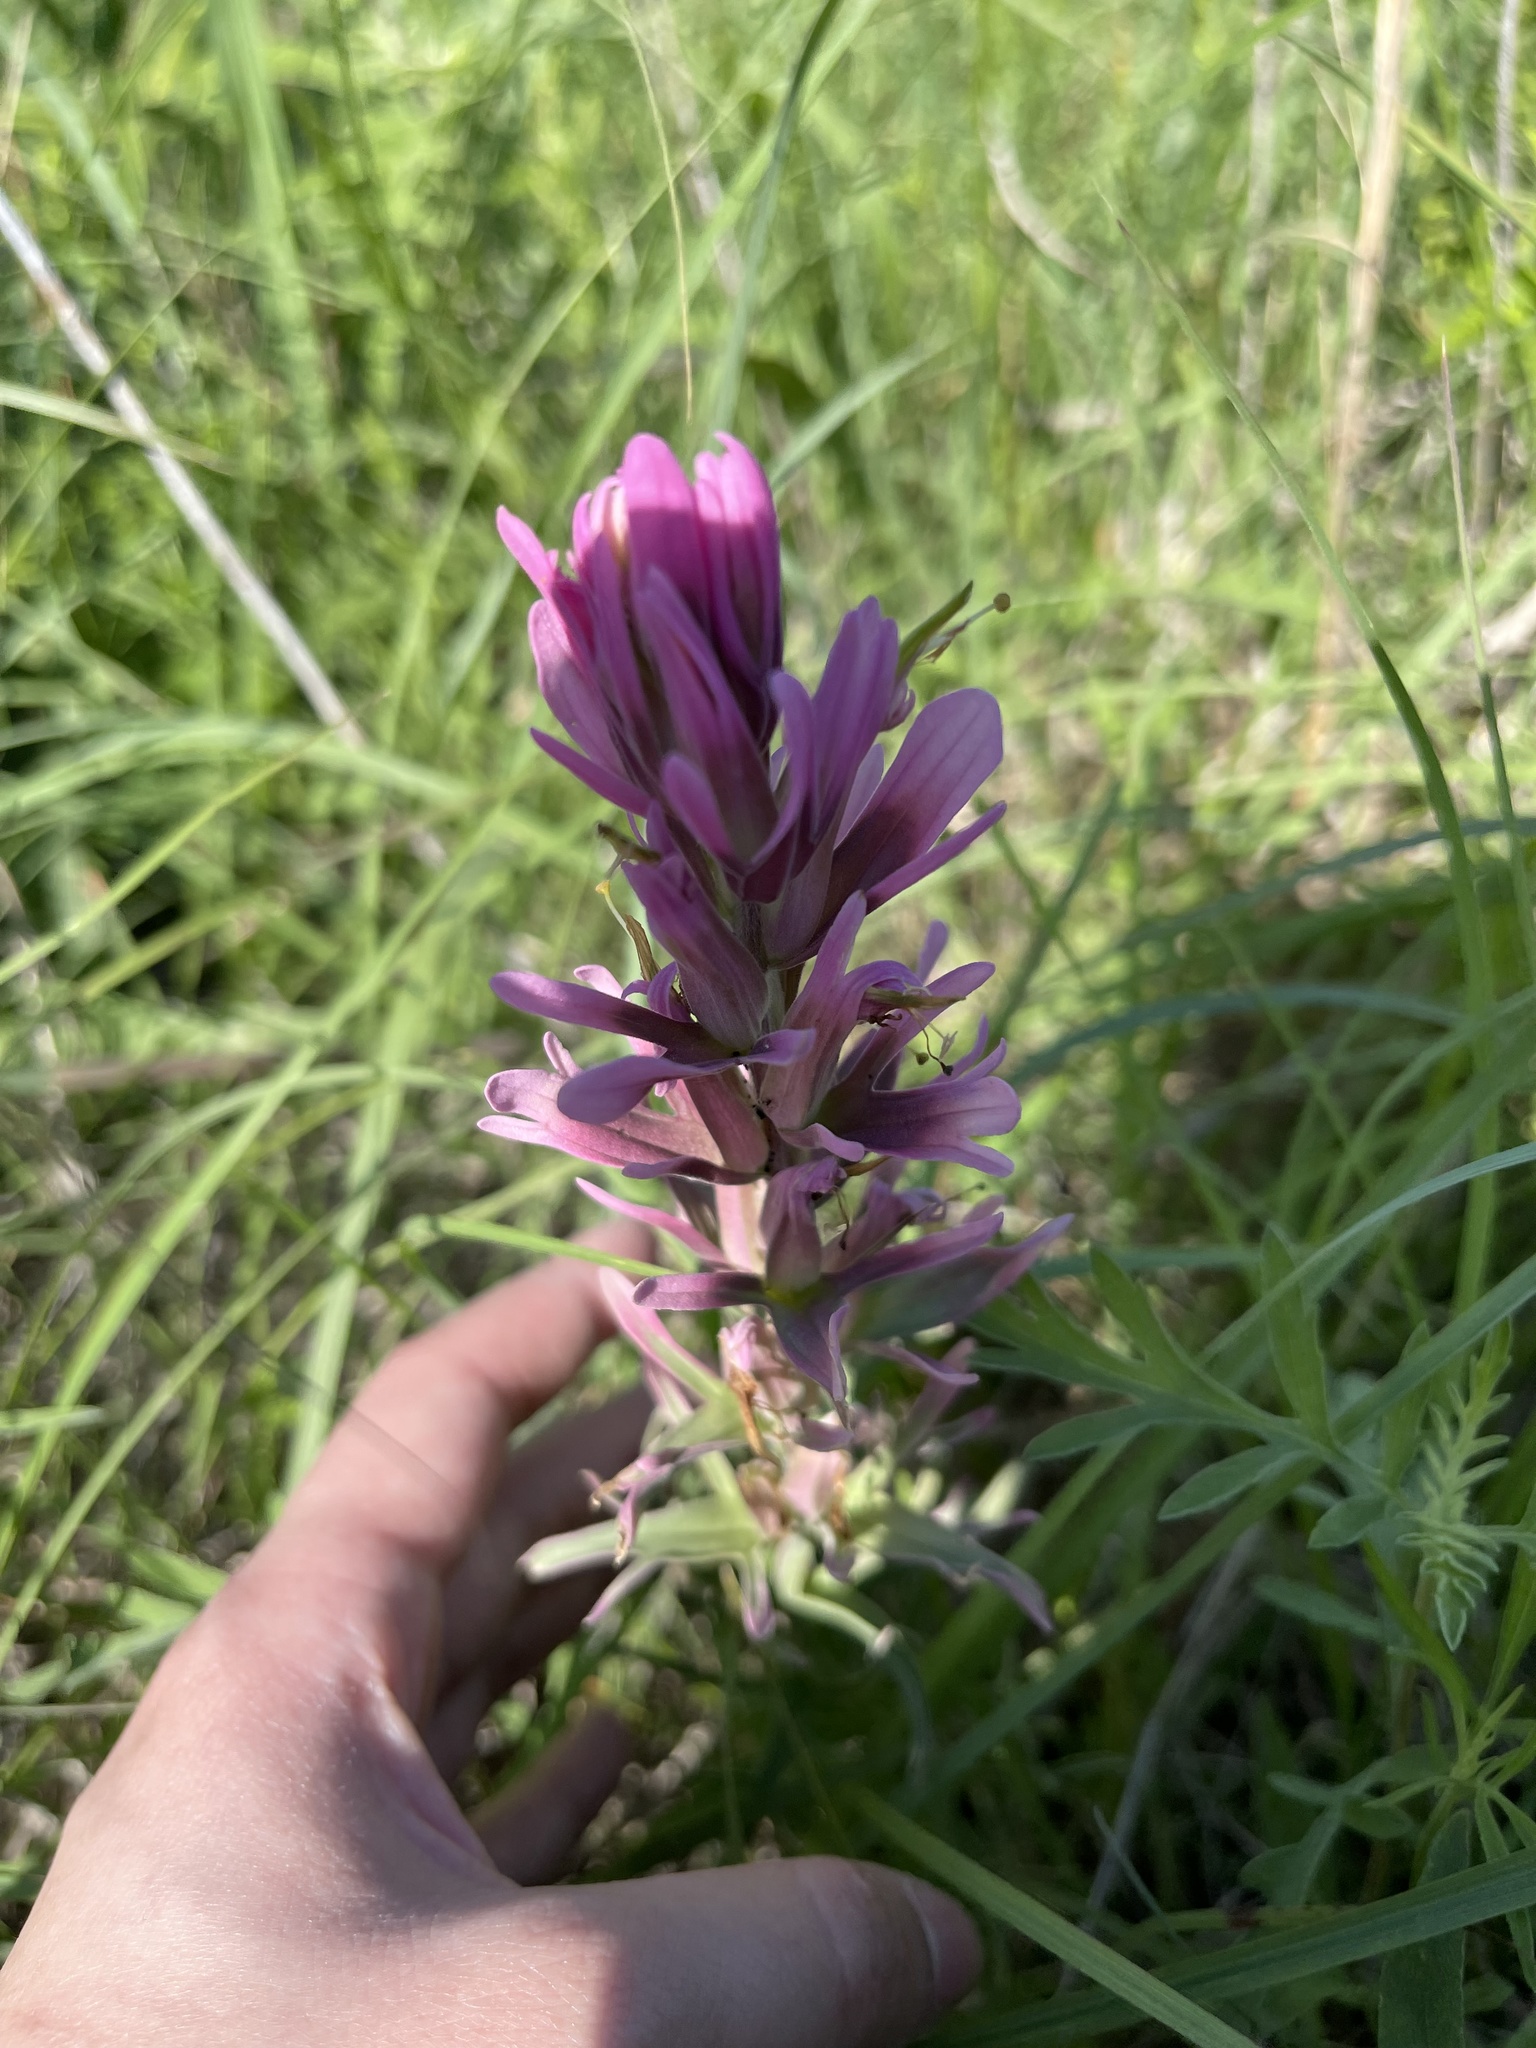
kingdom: Plantae
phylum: Tracheophyta
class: Magnoliopsida
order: Lamiales
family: Orobanchaceae
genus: Castilleja
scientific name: Castilleja purpurea
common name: Plains paintbrush
